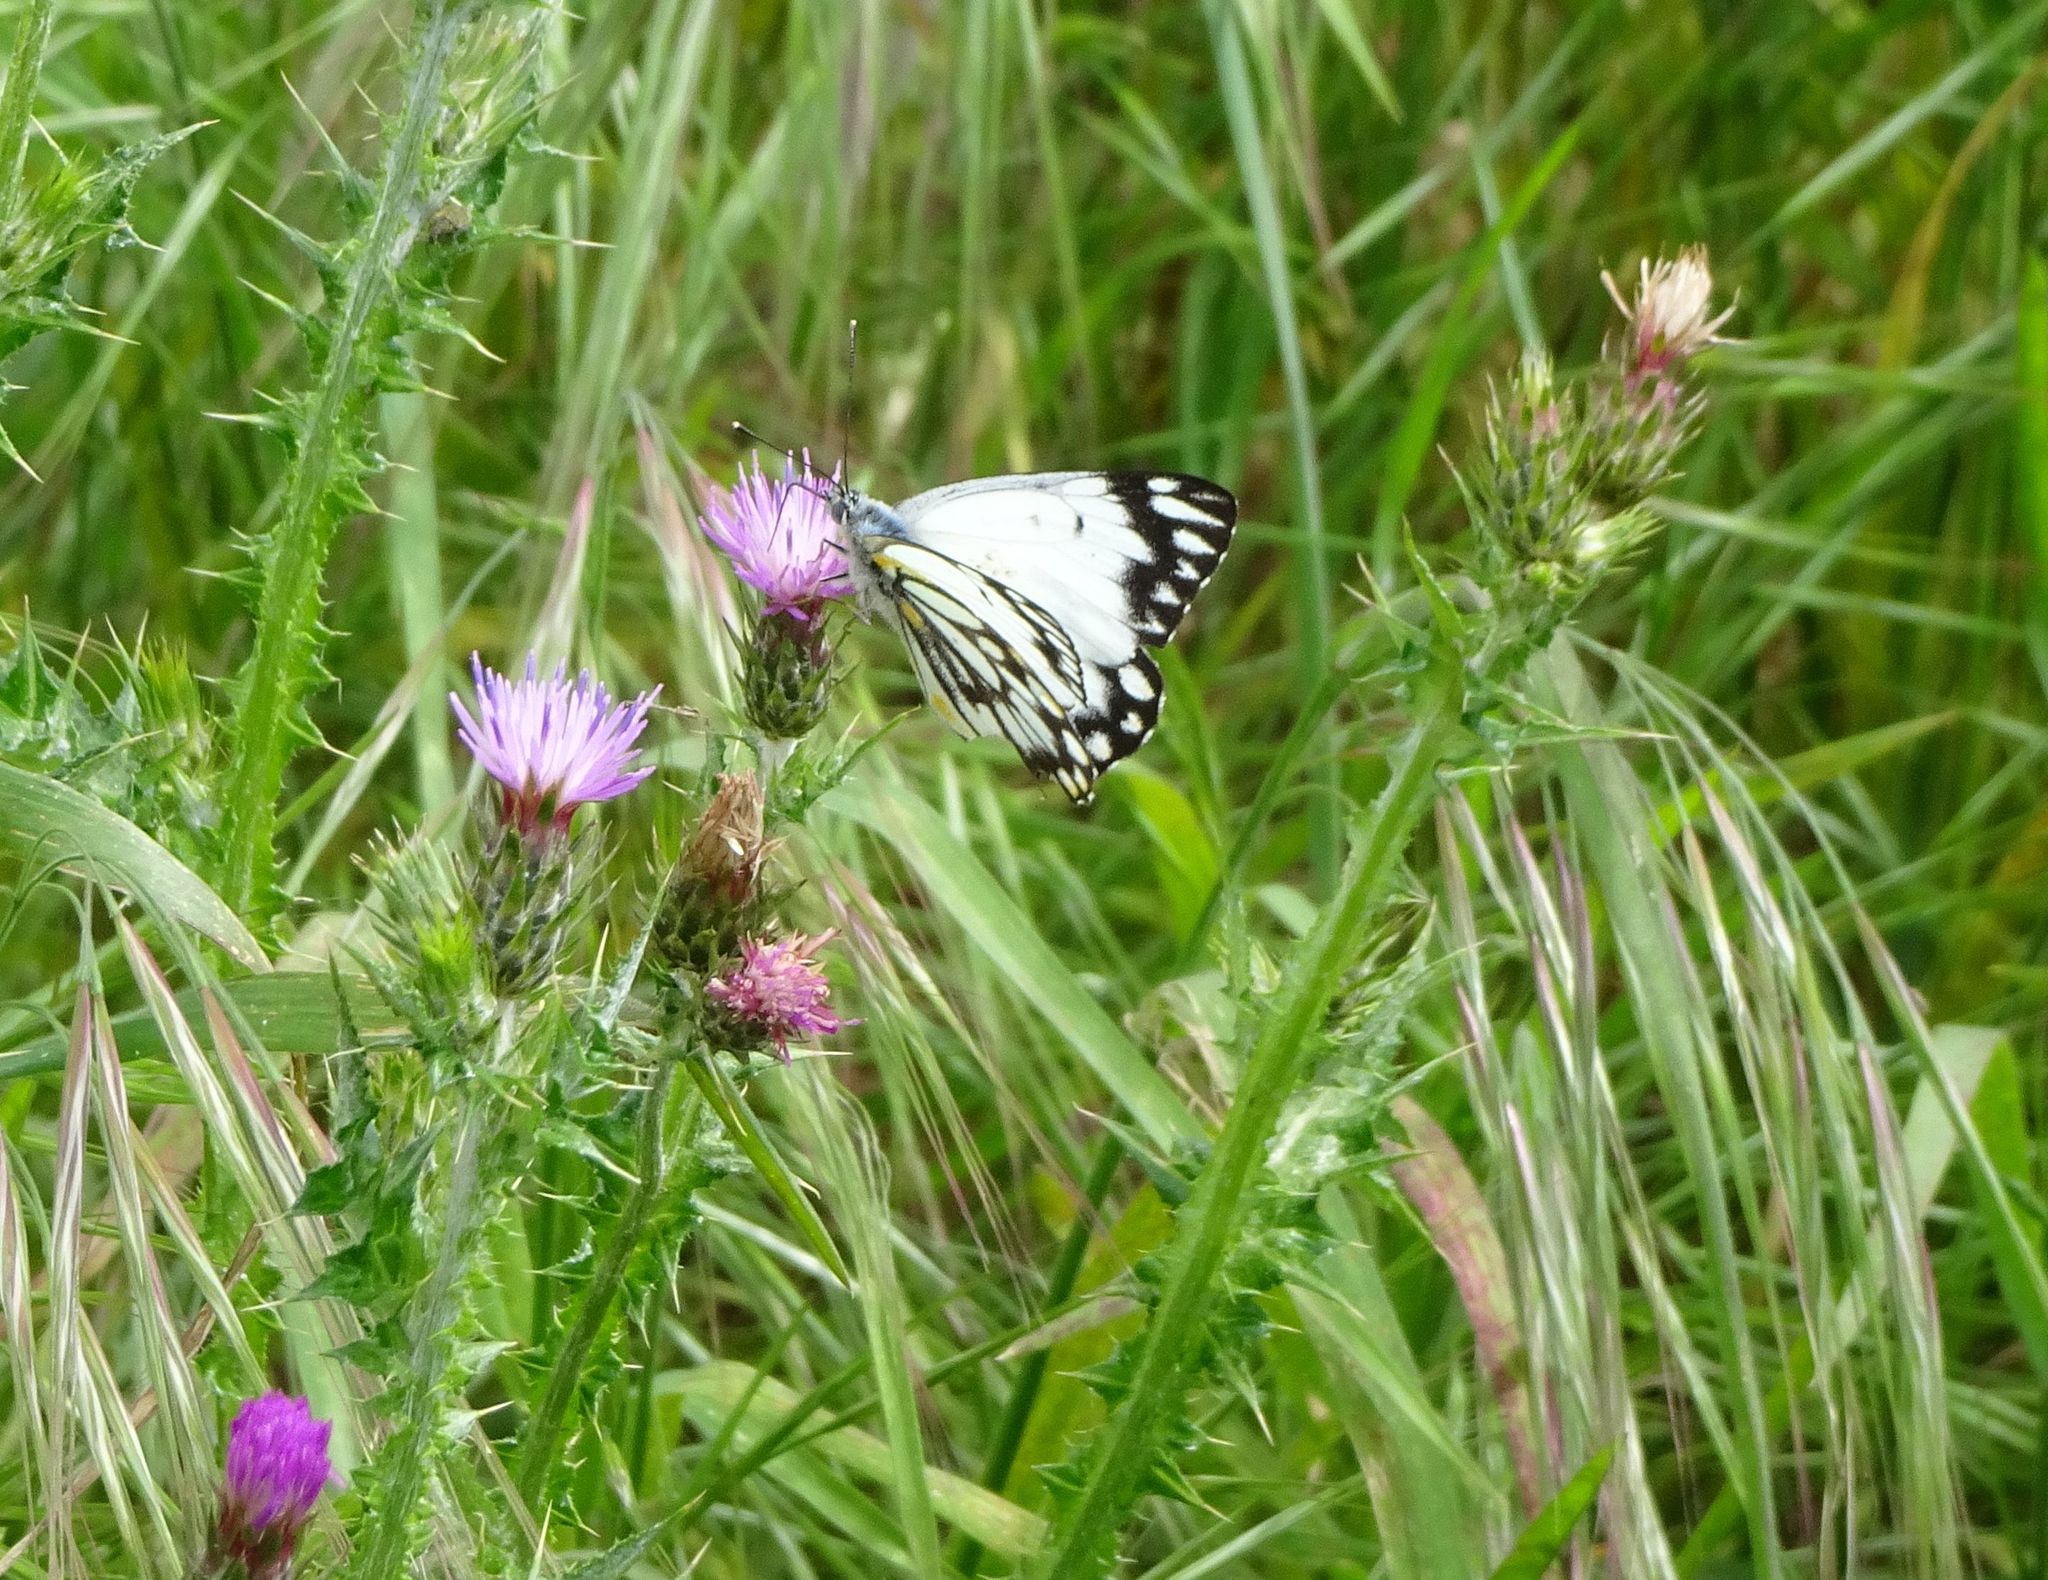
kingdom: Animalia
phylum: Arthropoda
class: Insecta
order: Lepidoptera
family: Pieridae
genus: Belenois
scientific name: Belenois java
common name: Caper white
